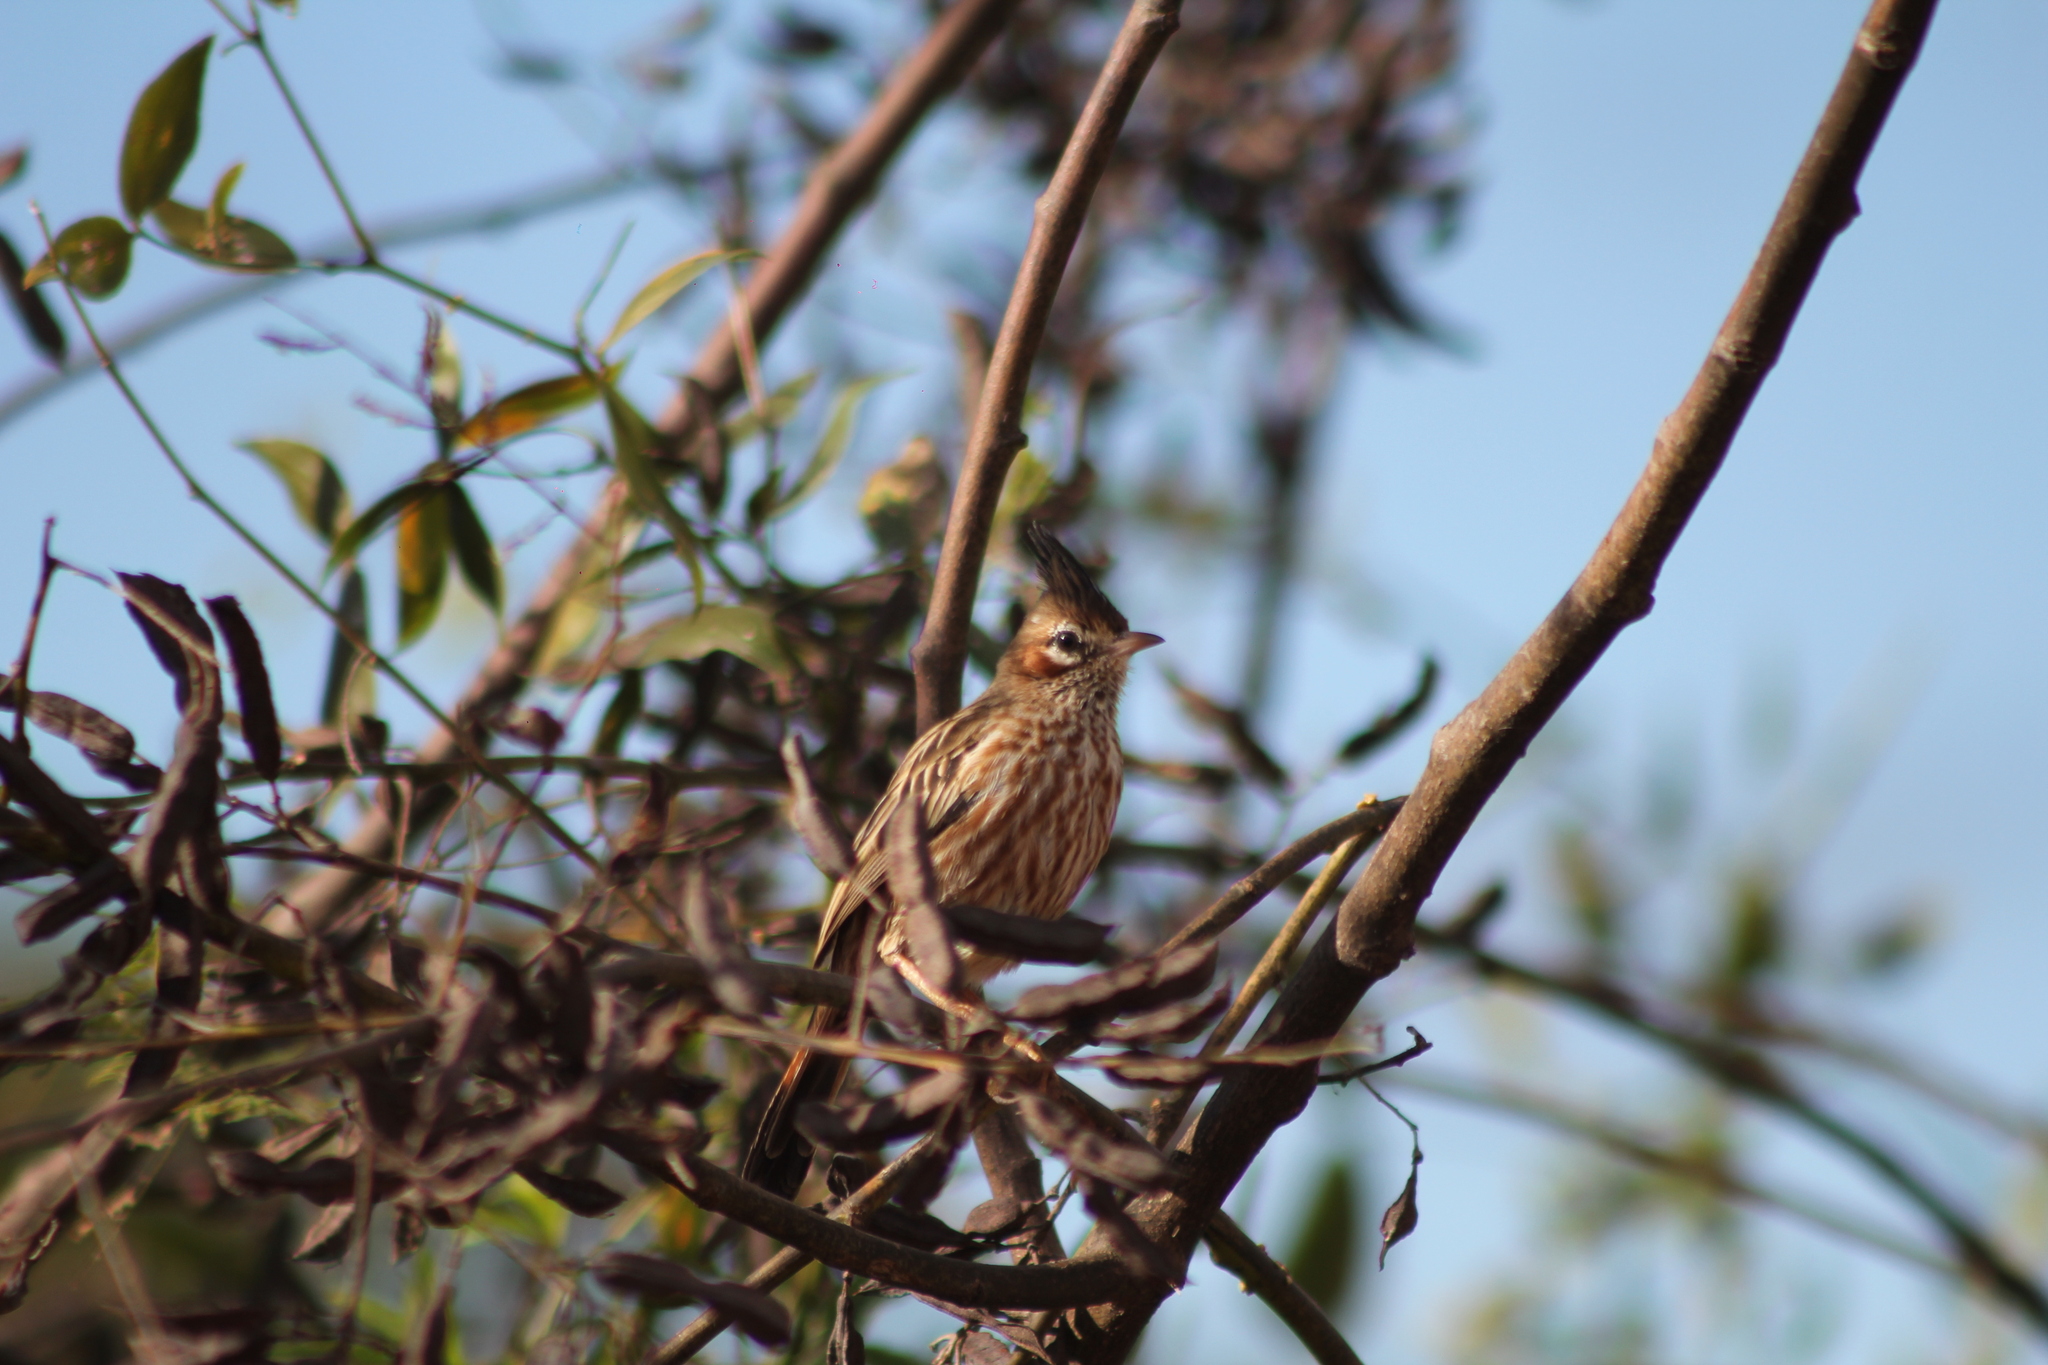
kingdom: Animalia
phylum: Chordata
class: Aves
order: Passeriformes
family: Furnariidae
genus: Coryphistera
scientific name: Coryphistera alaudina
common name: Lark-like brushrunner
